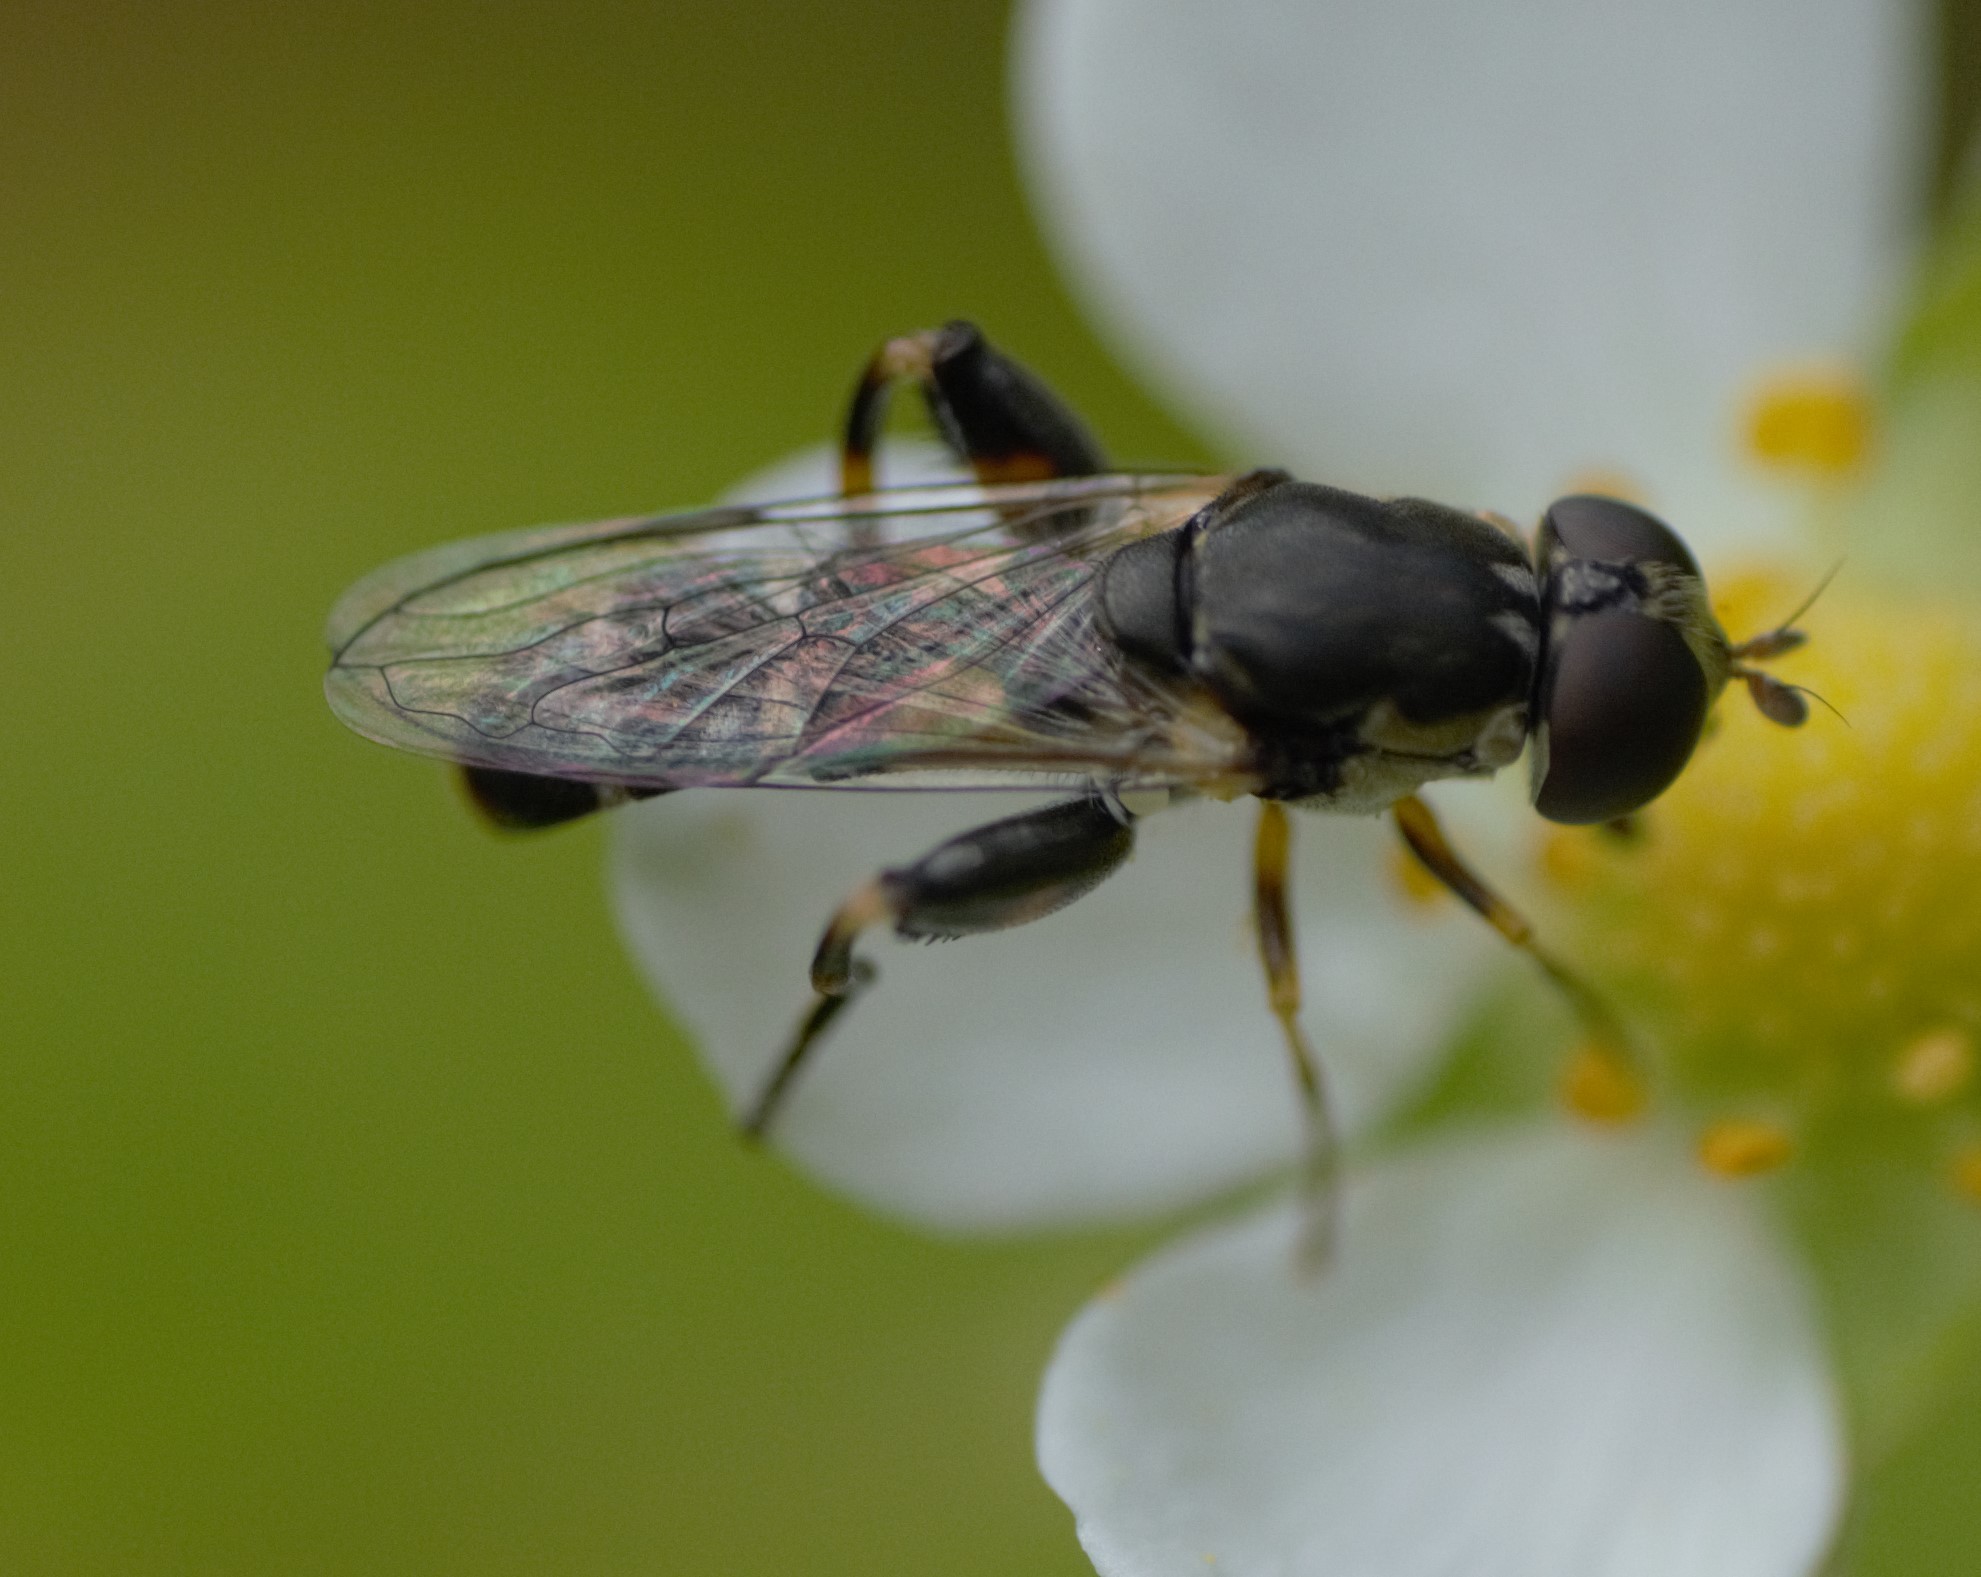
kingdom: Animalia
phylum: Arthropoda
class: Insecta
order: Diptera
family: Syrphidae
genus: Syritta
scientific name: Syritta pipiens
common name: Hover fly
